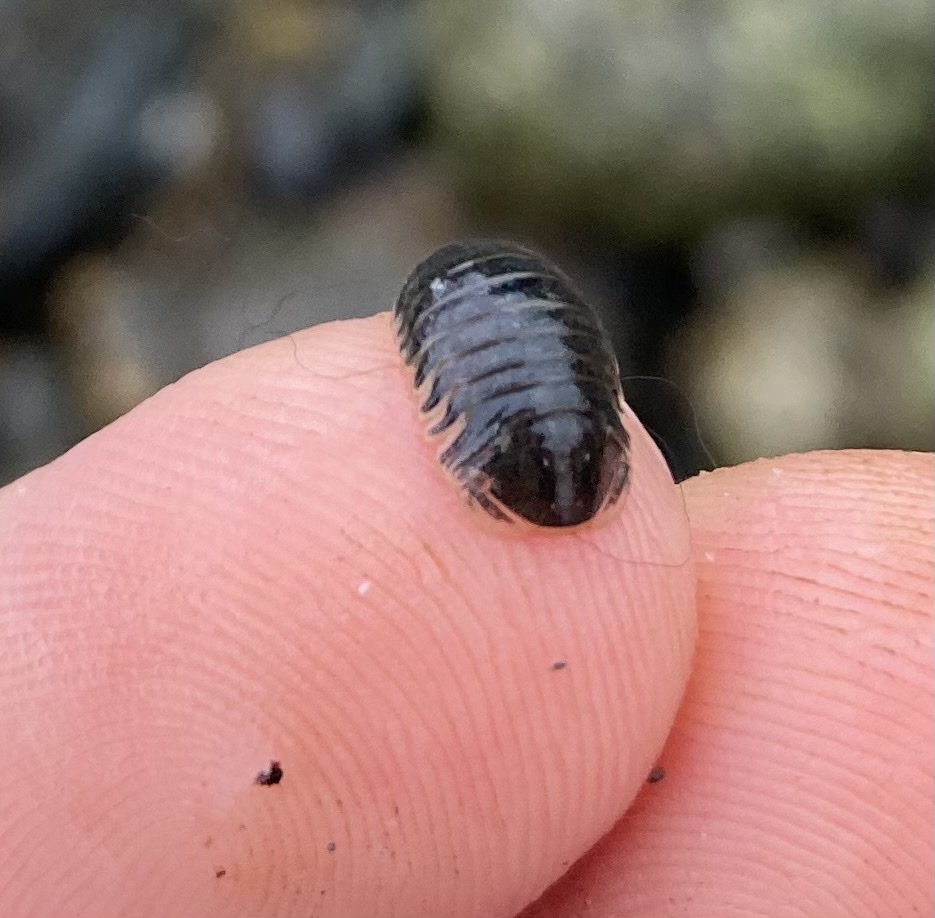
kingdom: Animalia
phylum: Arthropoda
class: Malacostraca
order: Isopoda
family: Sphaeromatidae
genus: Gnorimosphaeroma
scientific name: Gnorimosphaeroma oregonense
